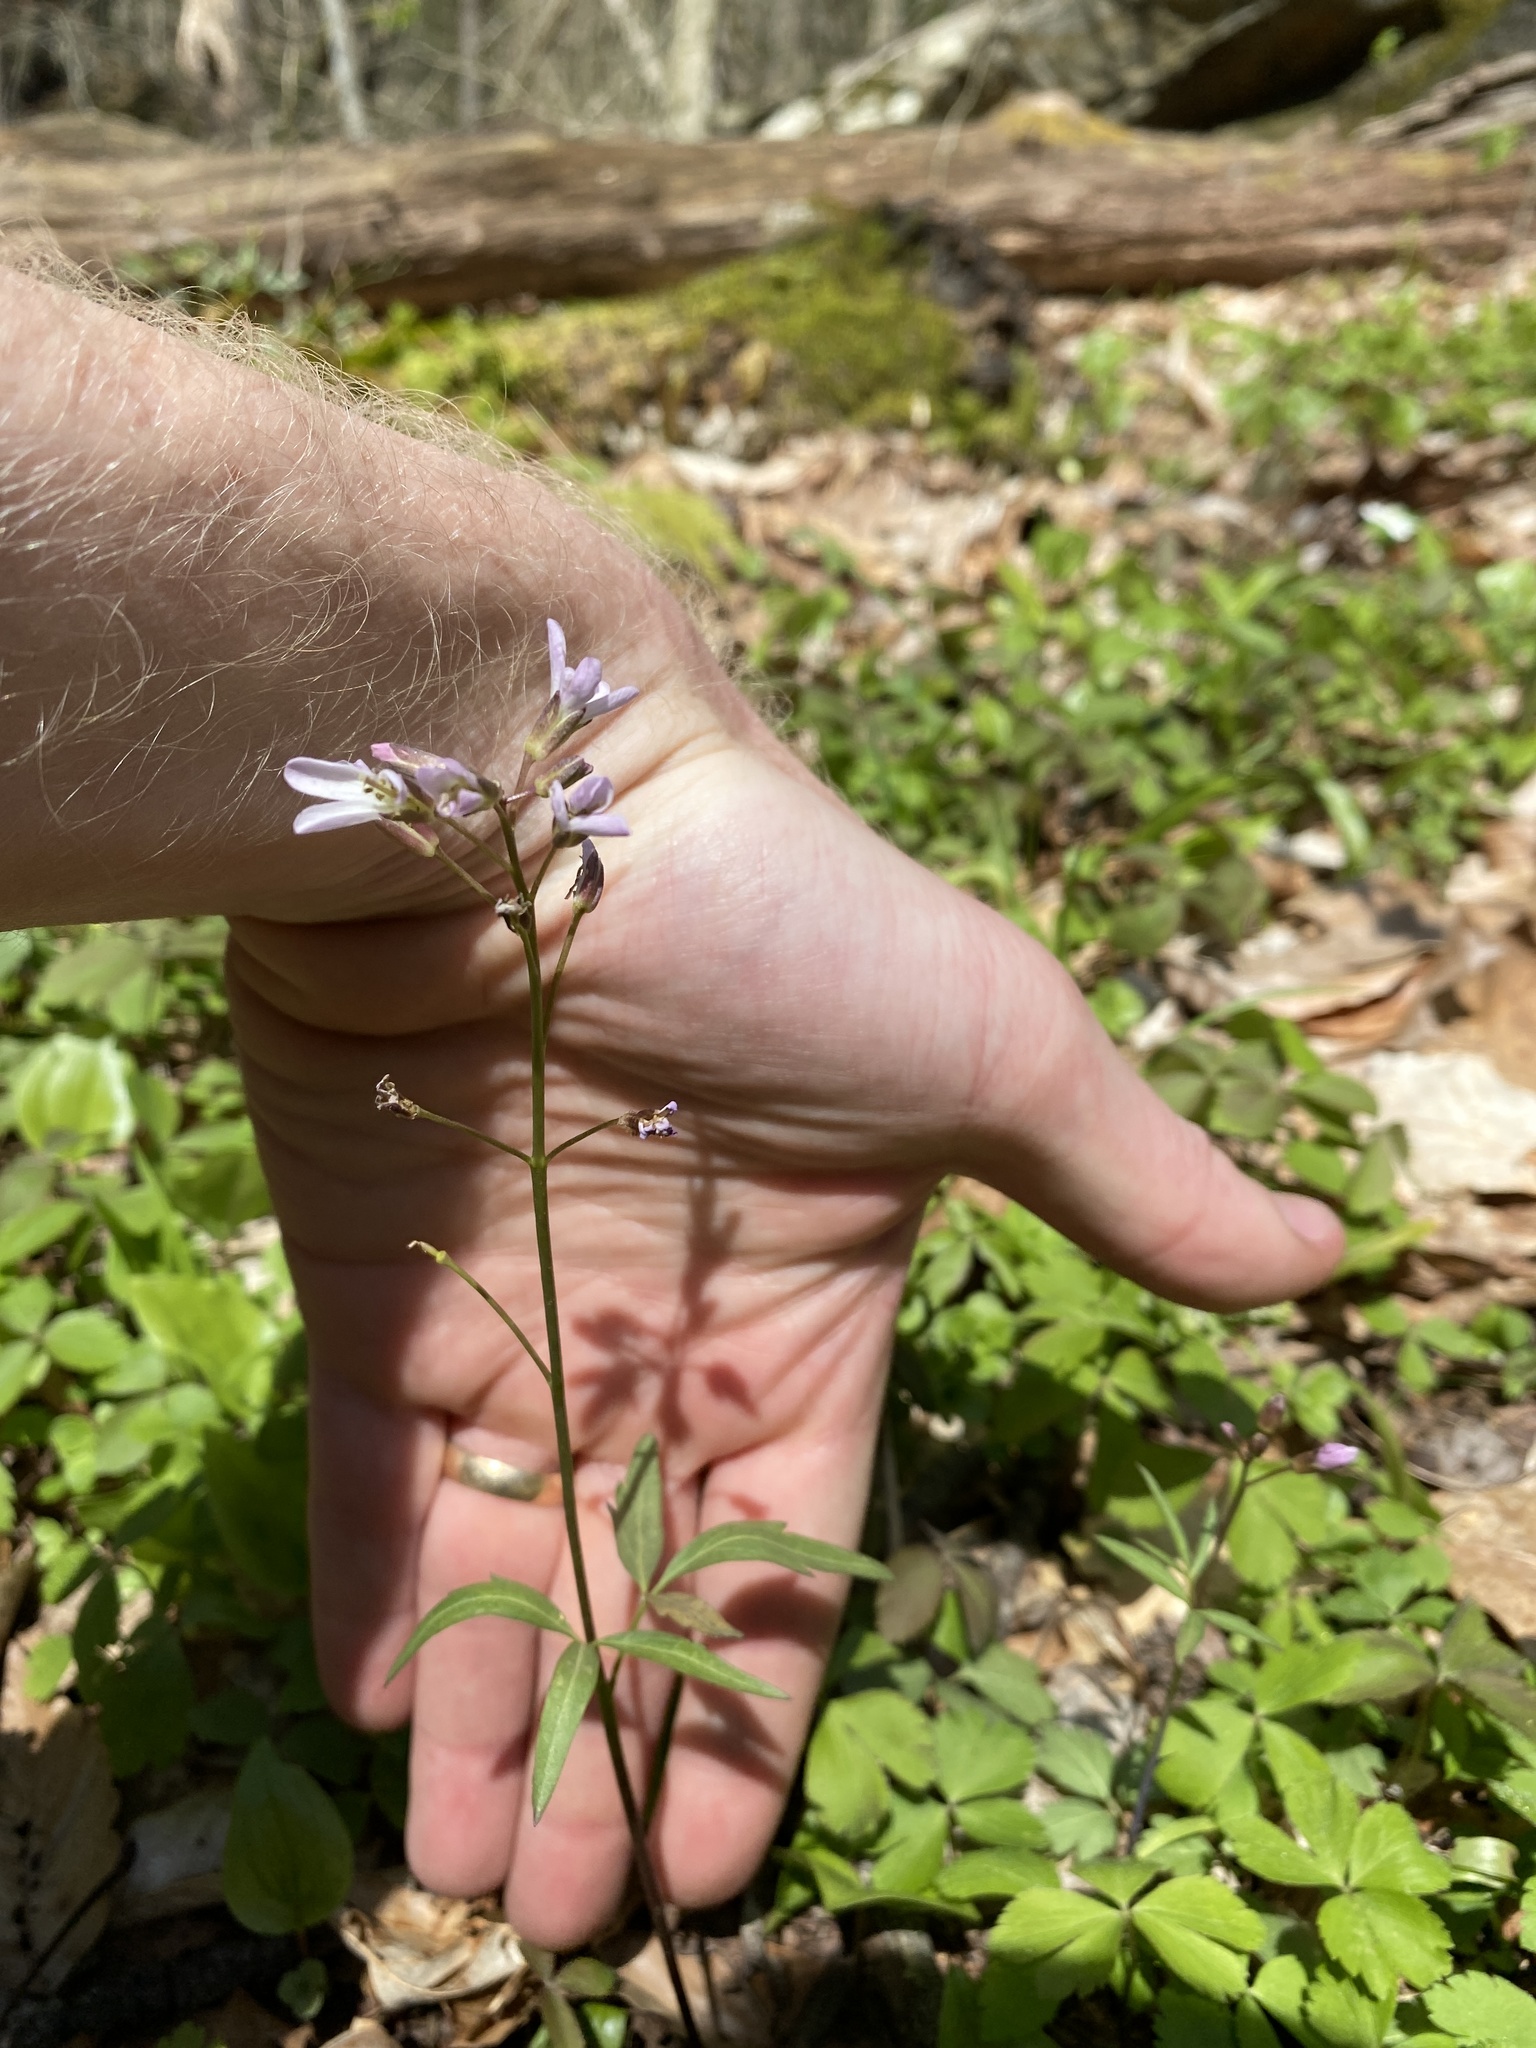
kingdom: Plantae
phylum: Tracheophyta
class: Magnoliopsida
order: Brassicales
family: Brassicaceae
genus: Cardamine
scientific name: Cardamine angustata
